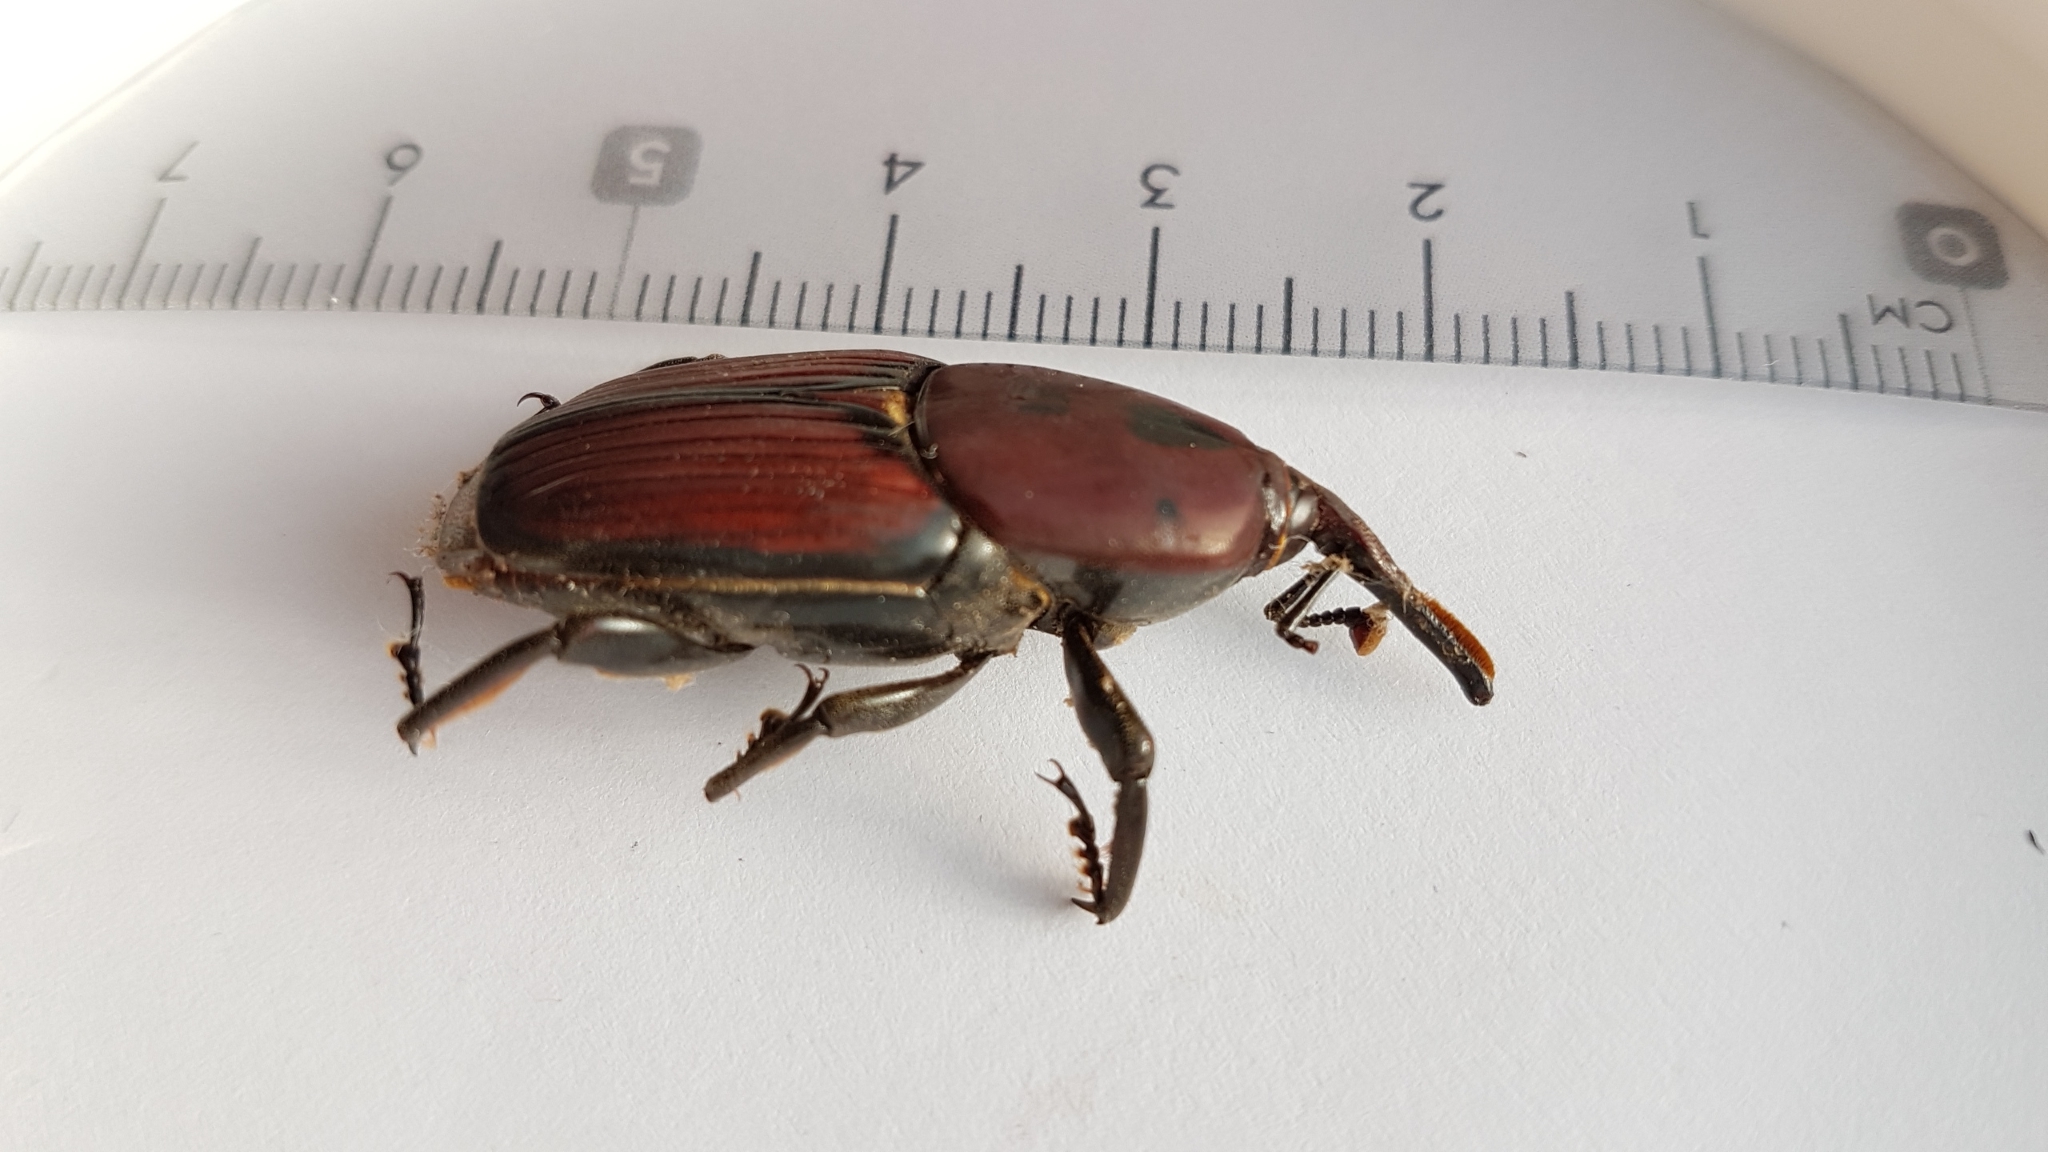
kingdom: Animalia
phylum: Arthropoda
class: Insecta
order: Coleoptera
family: Dryophthoridae
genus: Rhynchophorus
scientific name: Rhynchophorus ferrugineus
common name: Red palm weevil
